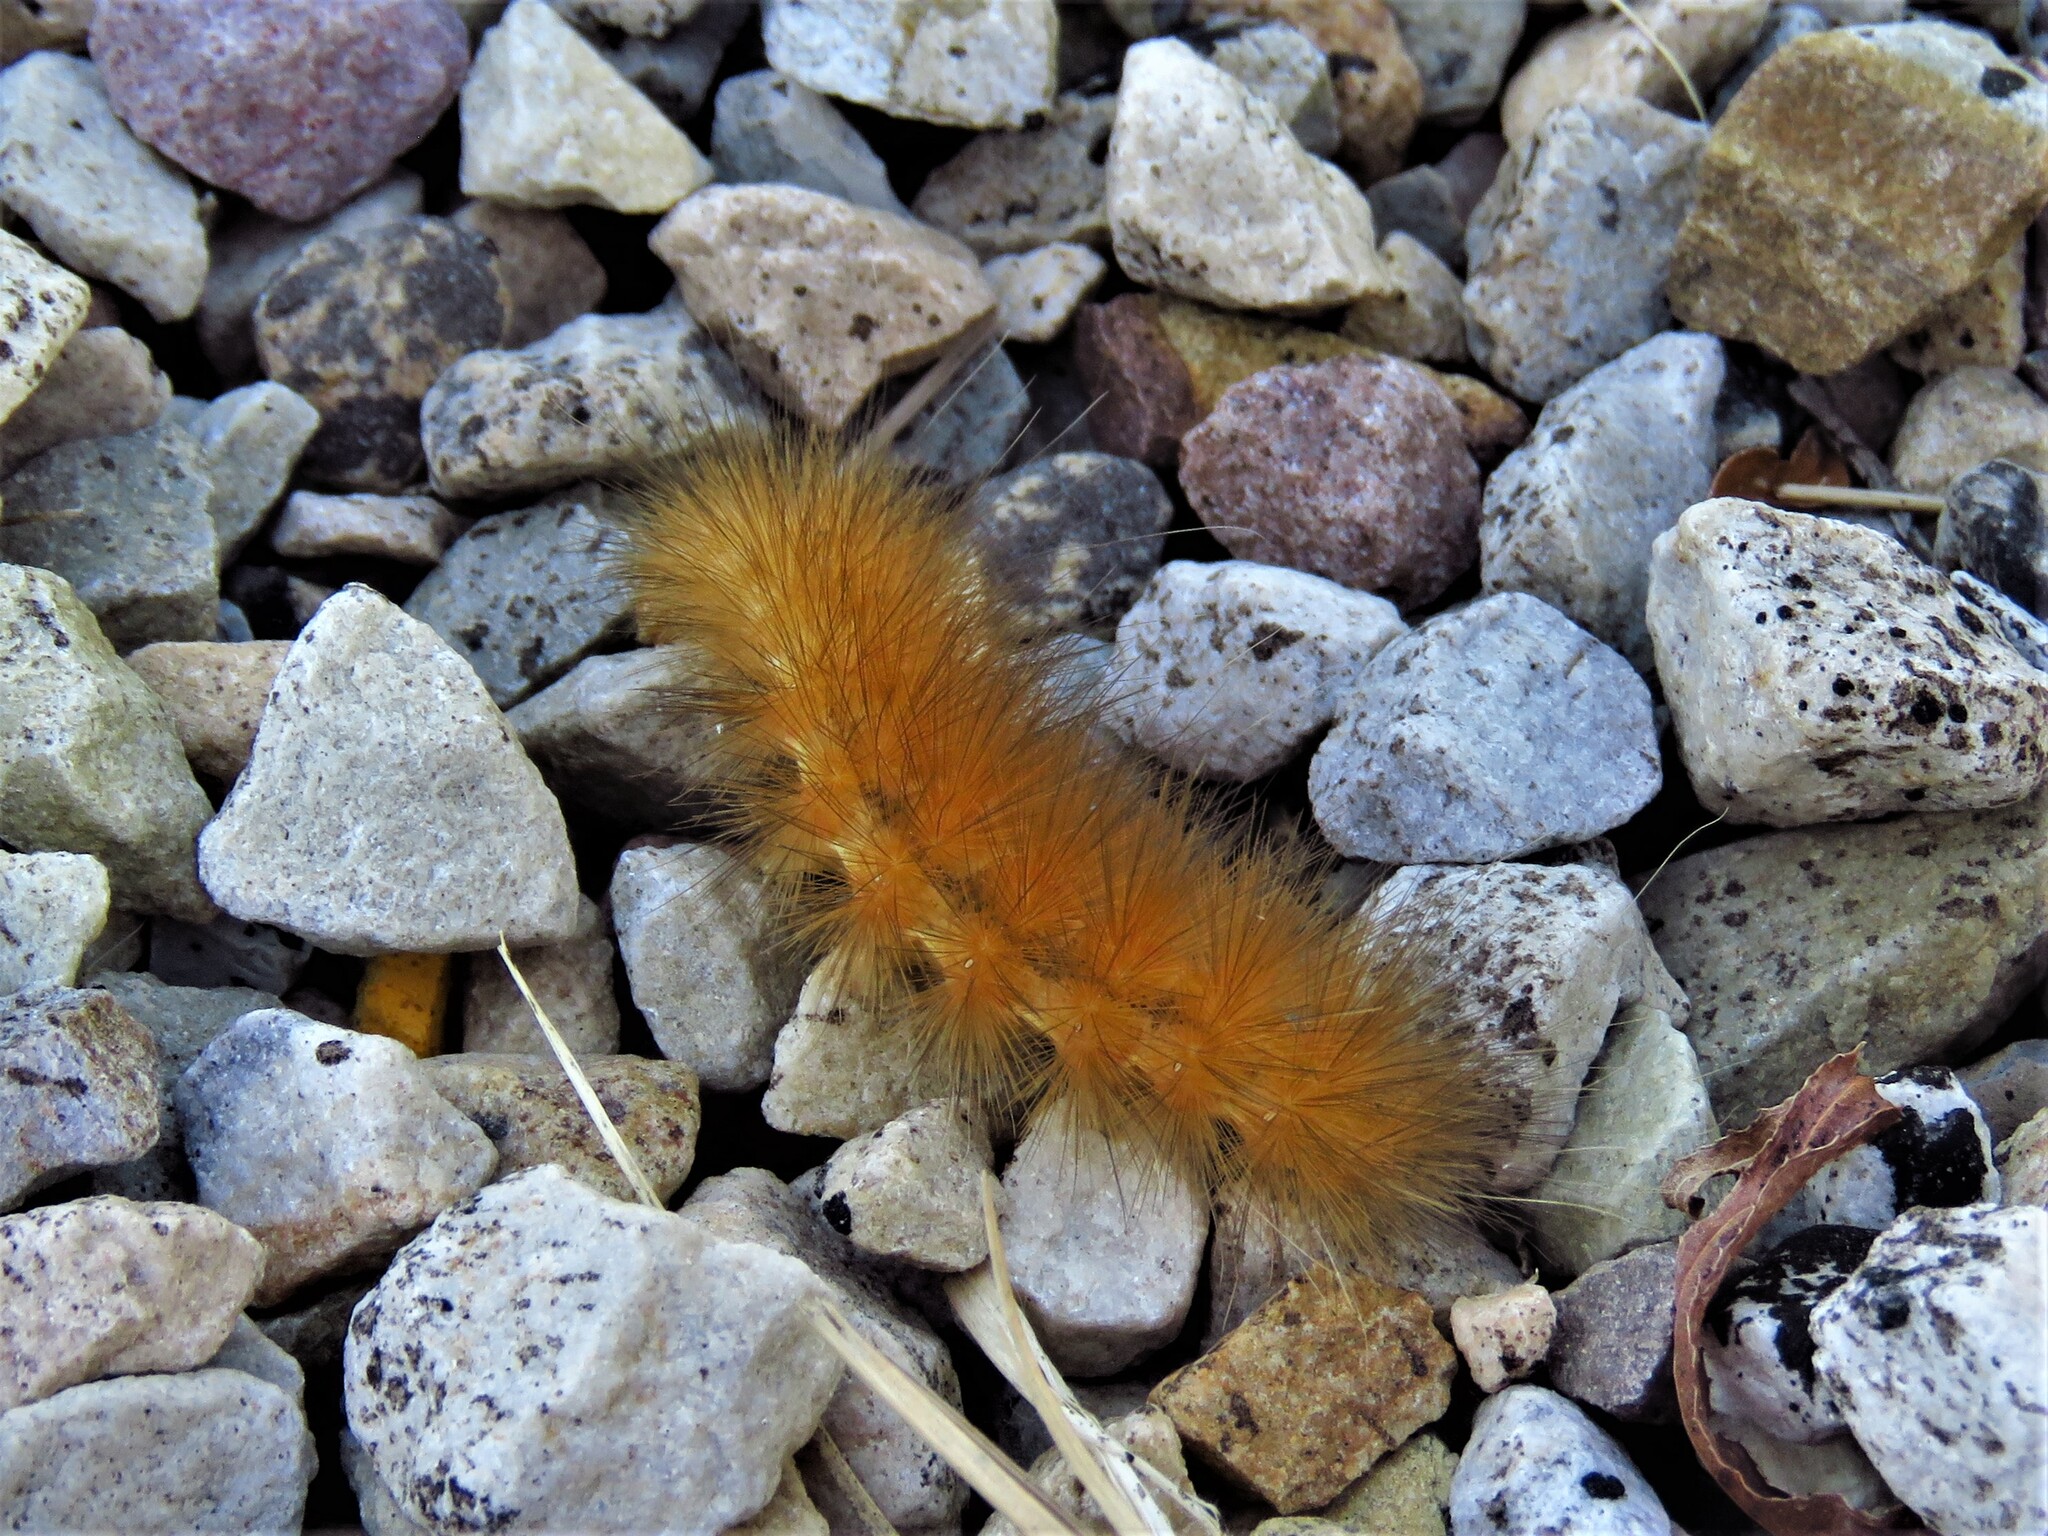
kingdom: Animalia
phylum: Arthropoda
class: Insecta
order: Lepidoptera
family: Erebidae
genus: Spilosoma
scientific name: Spilosoma virginica
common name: Virginia tiger moth
